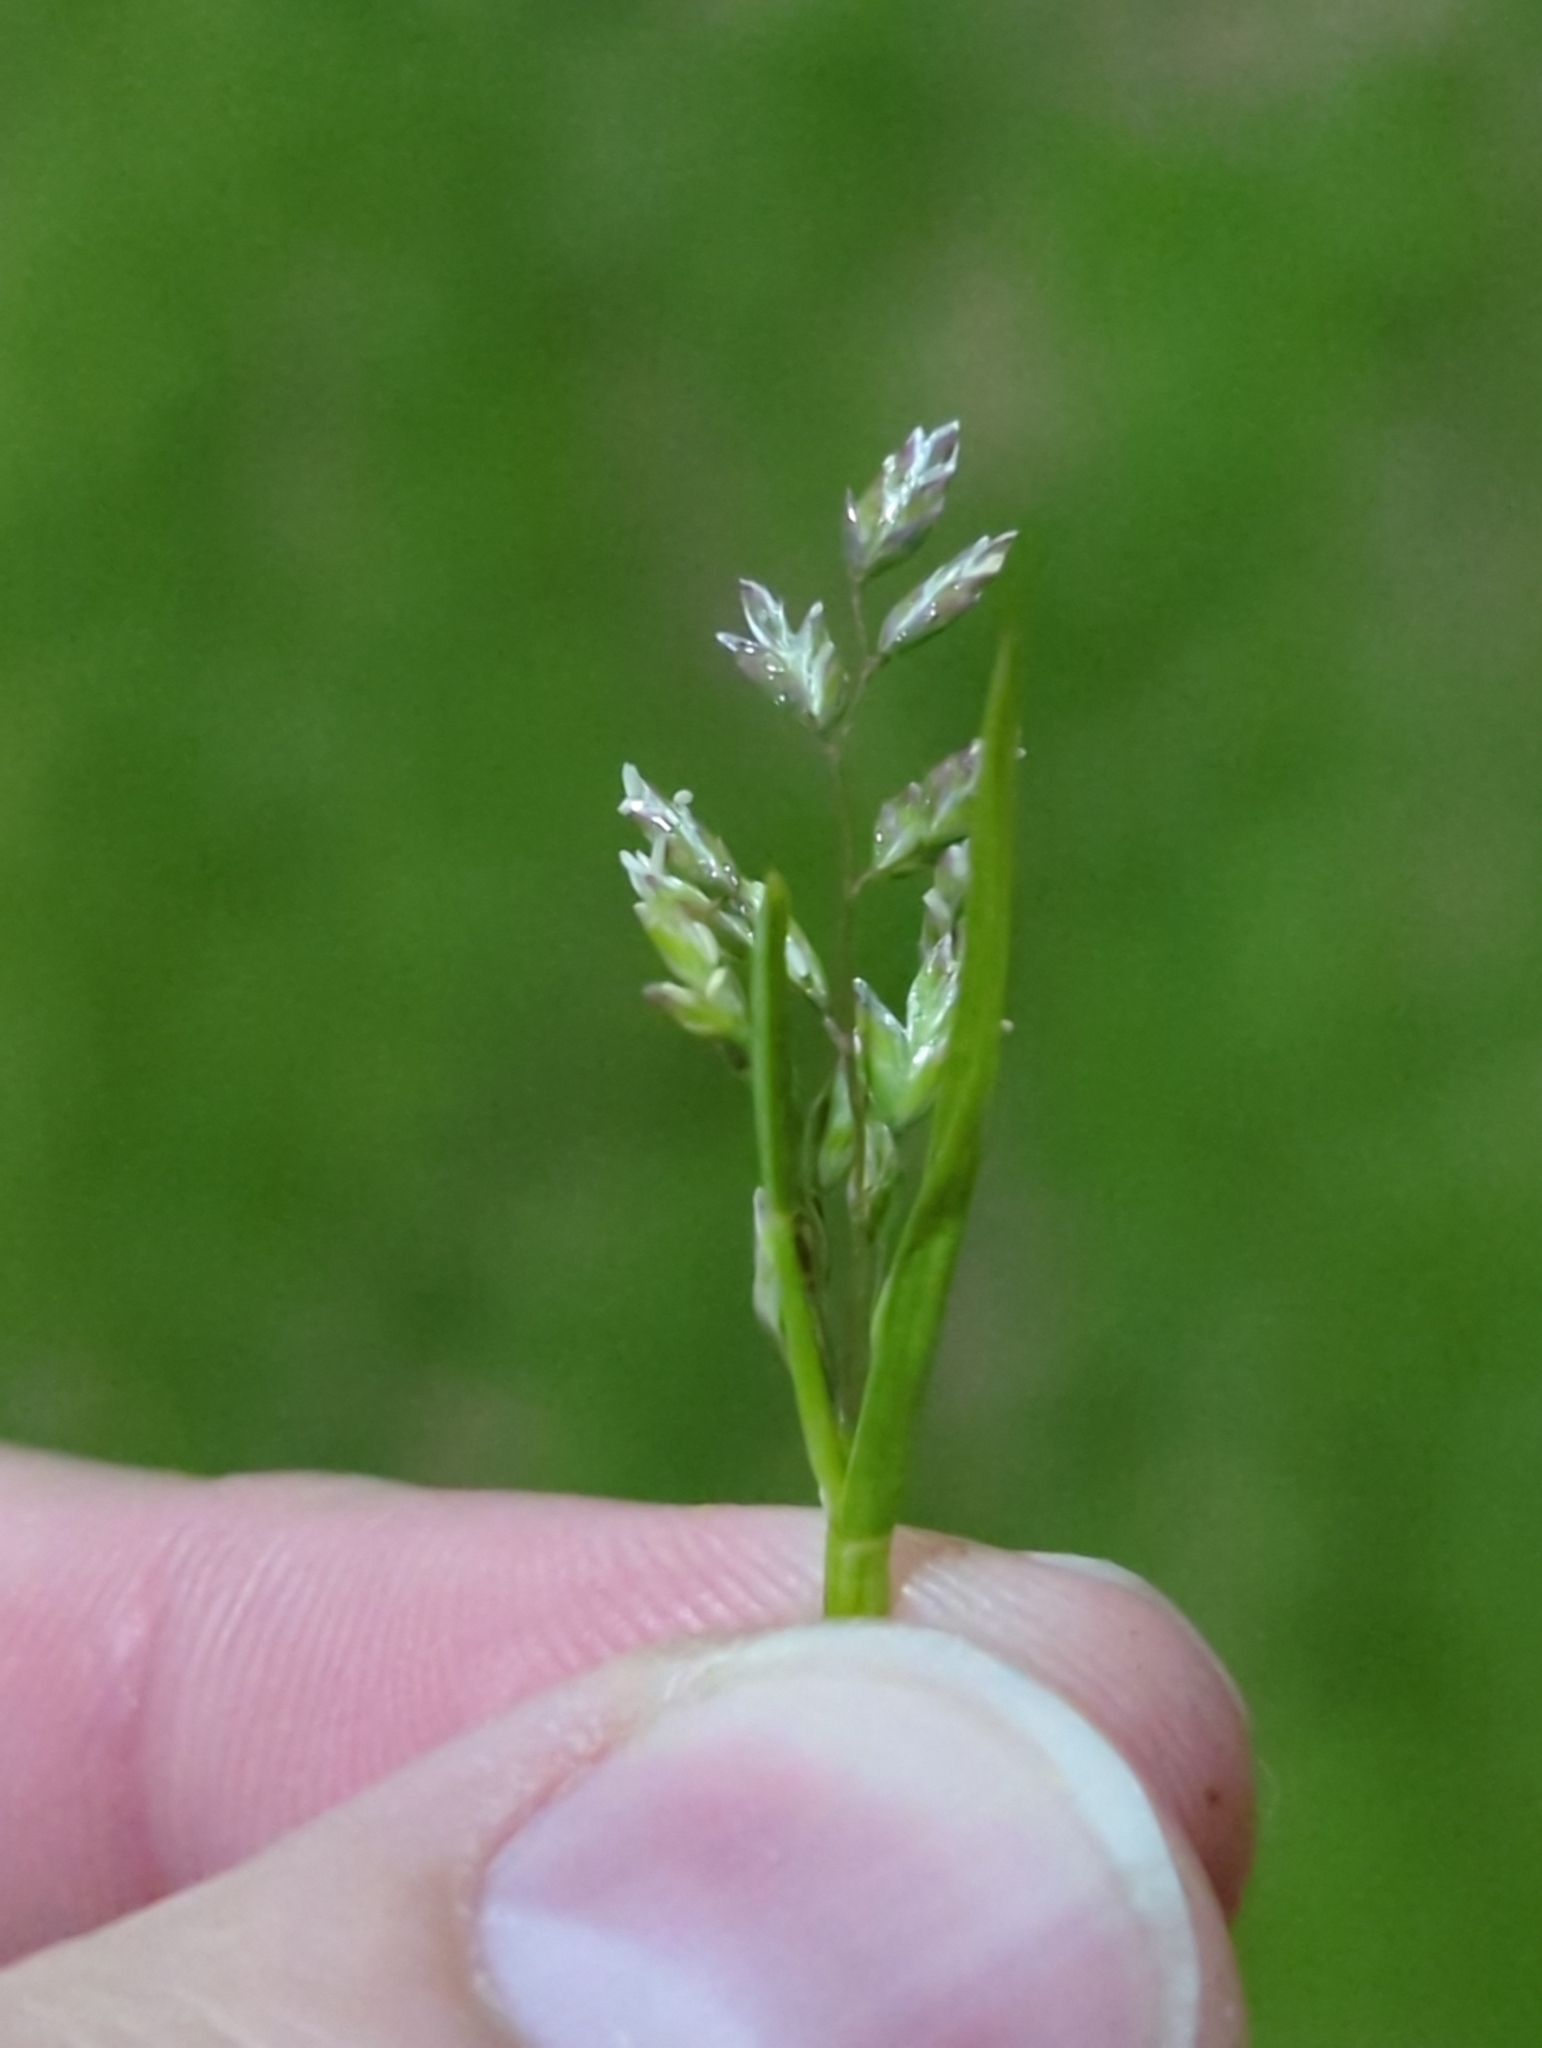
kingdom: Plantae
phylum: Tracheophyta
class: Liliopsida
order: Poales
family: Poaceae
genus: Poa
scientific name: Poa annua
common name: Annual bluegrass
